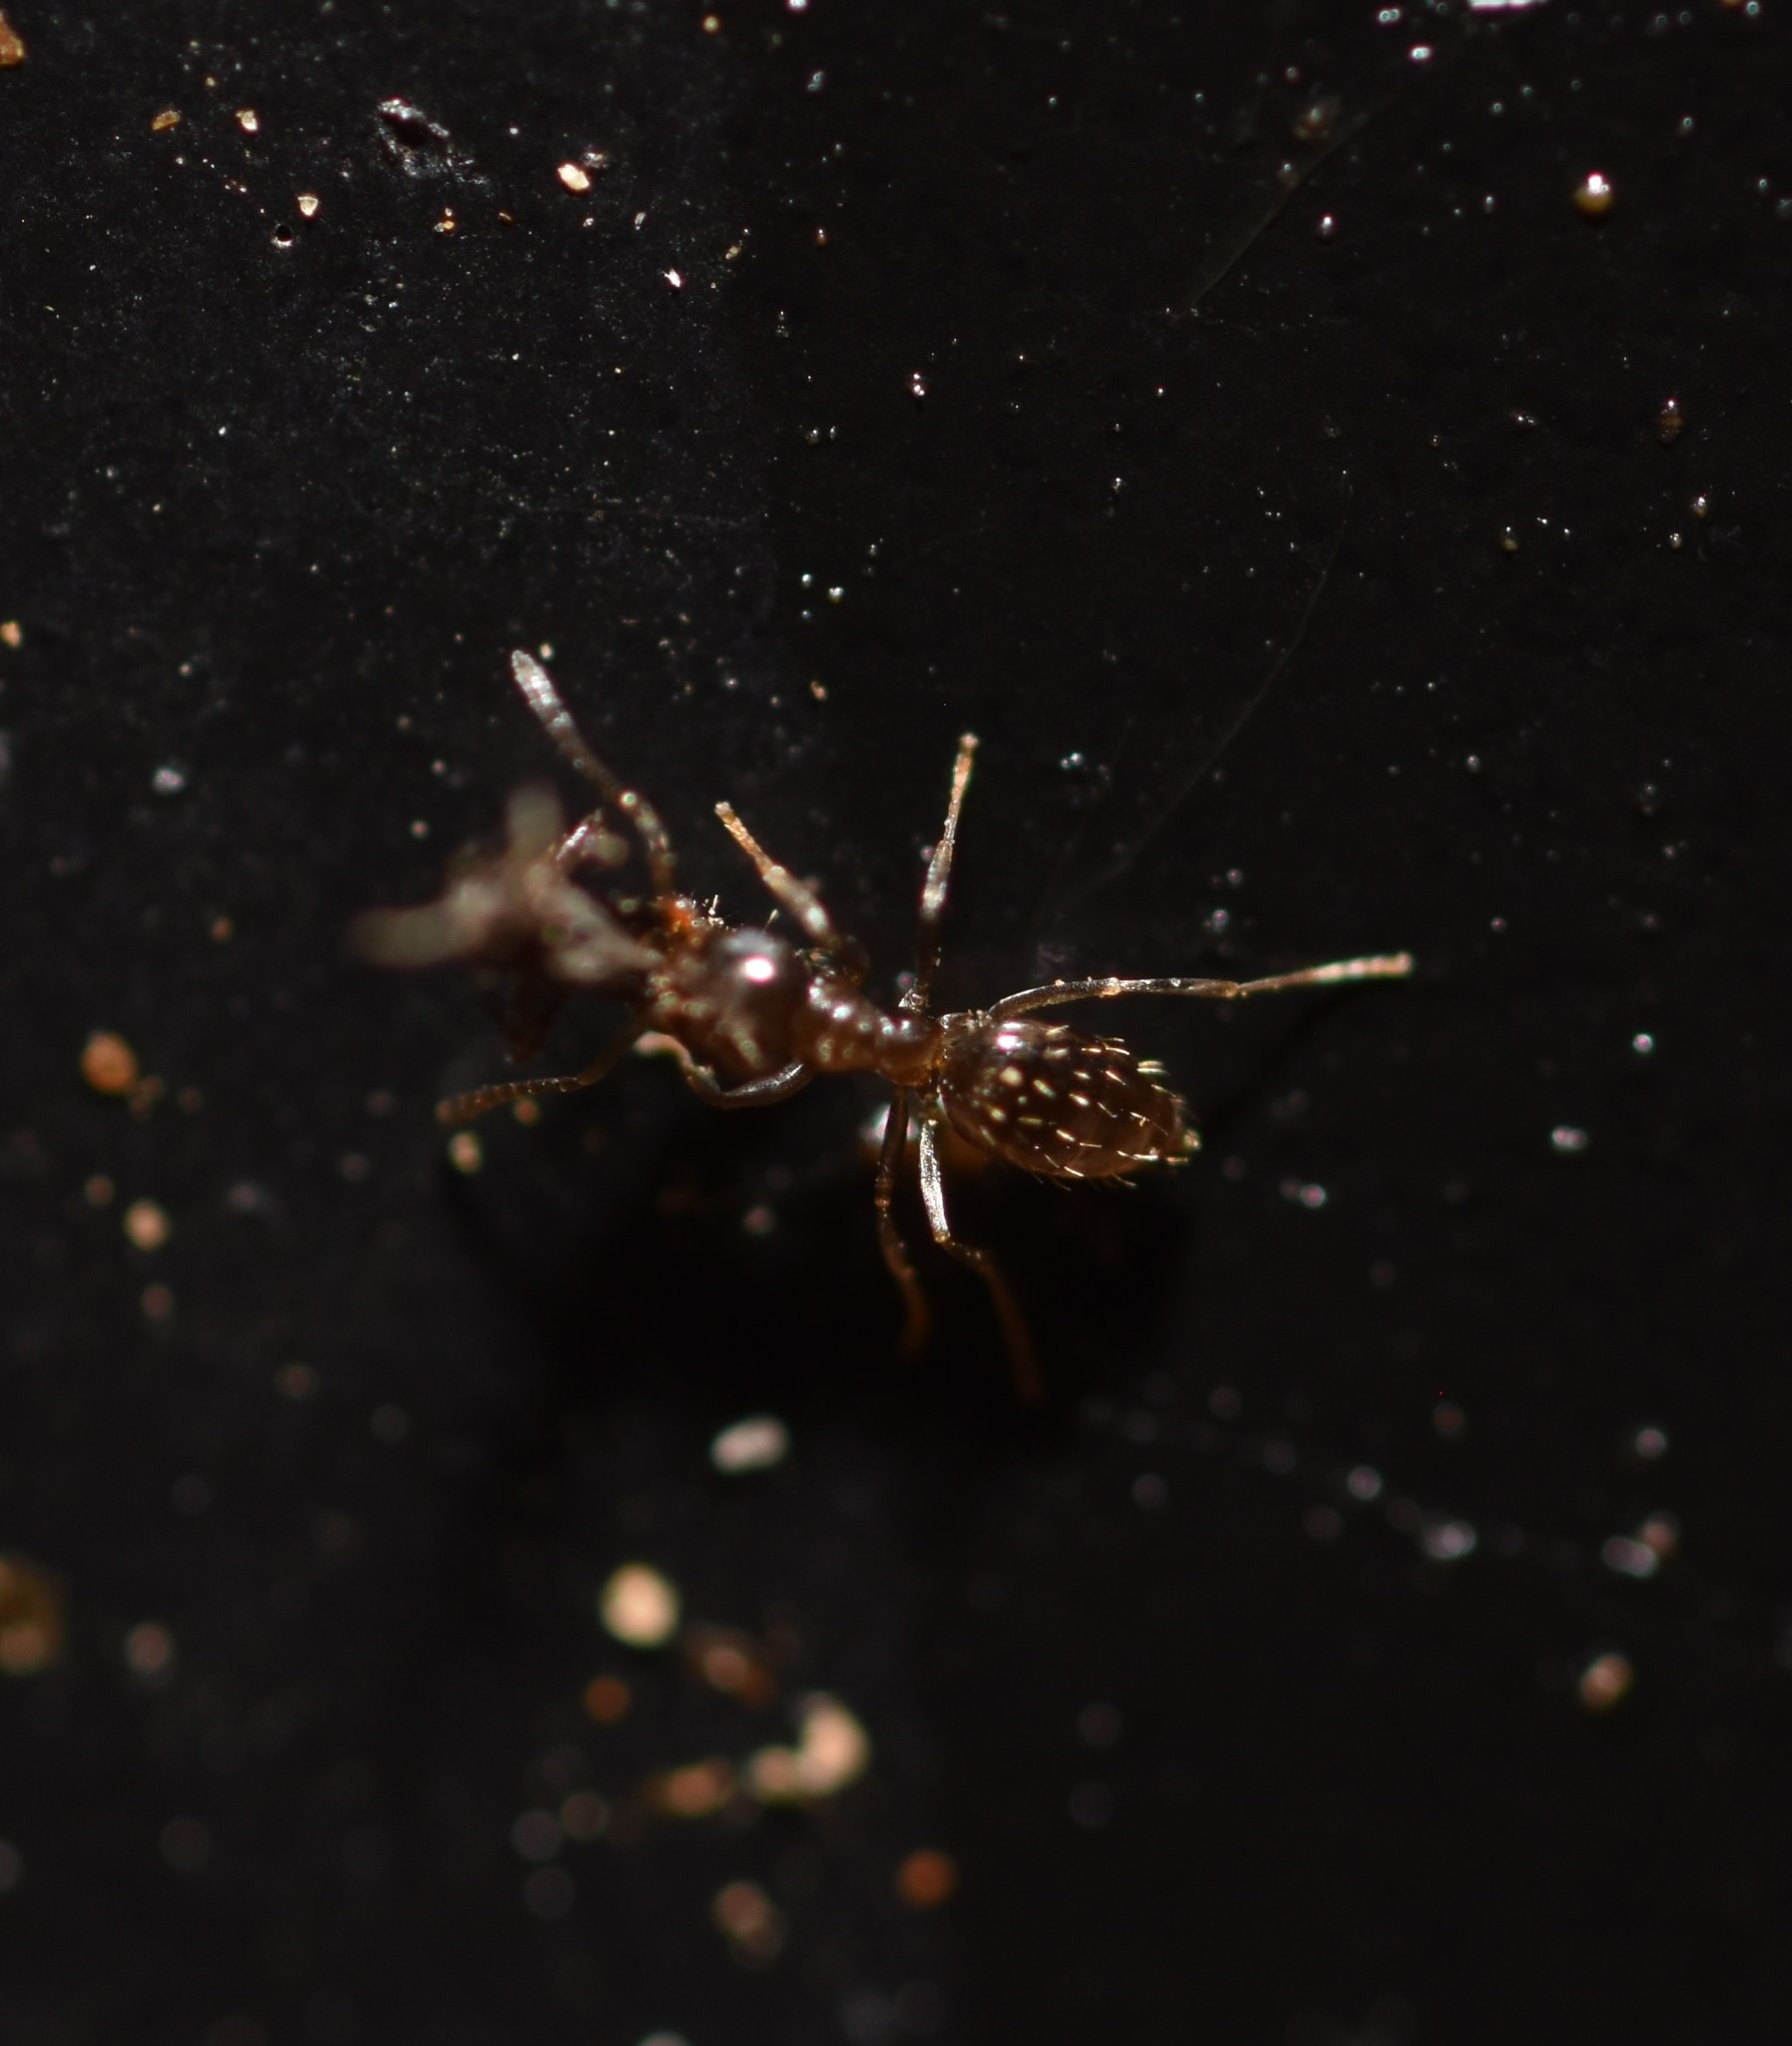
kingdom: Animalia
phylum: Arthropoda
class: Insecta
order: Hymenoptera
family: Formicidae
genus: Brachymyrmex
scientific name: Brachymyrmex patagonicus
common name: Dark rover ant
